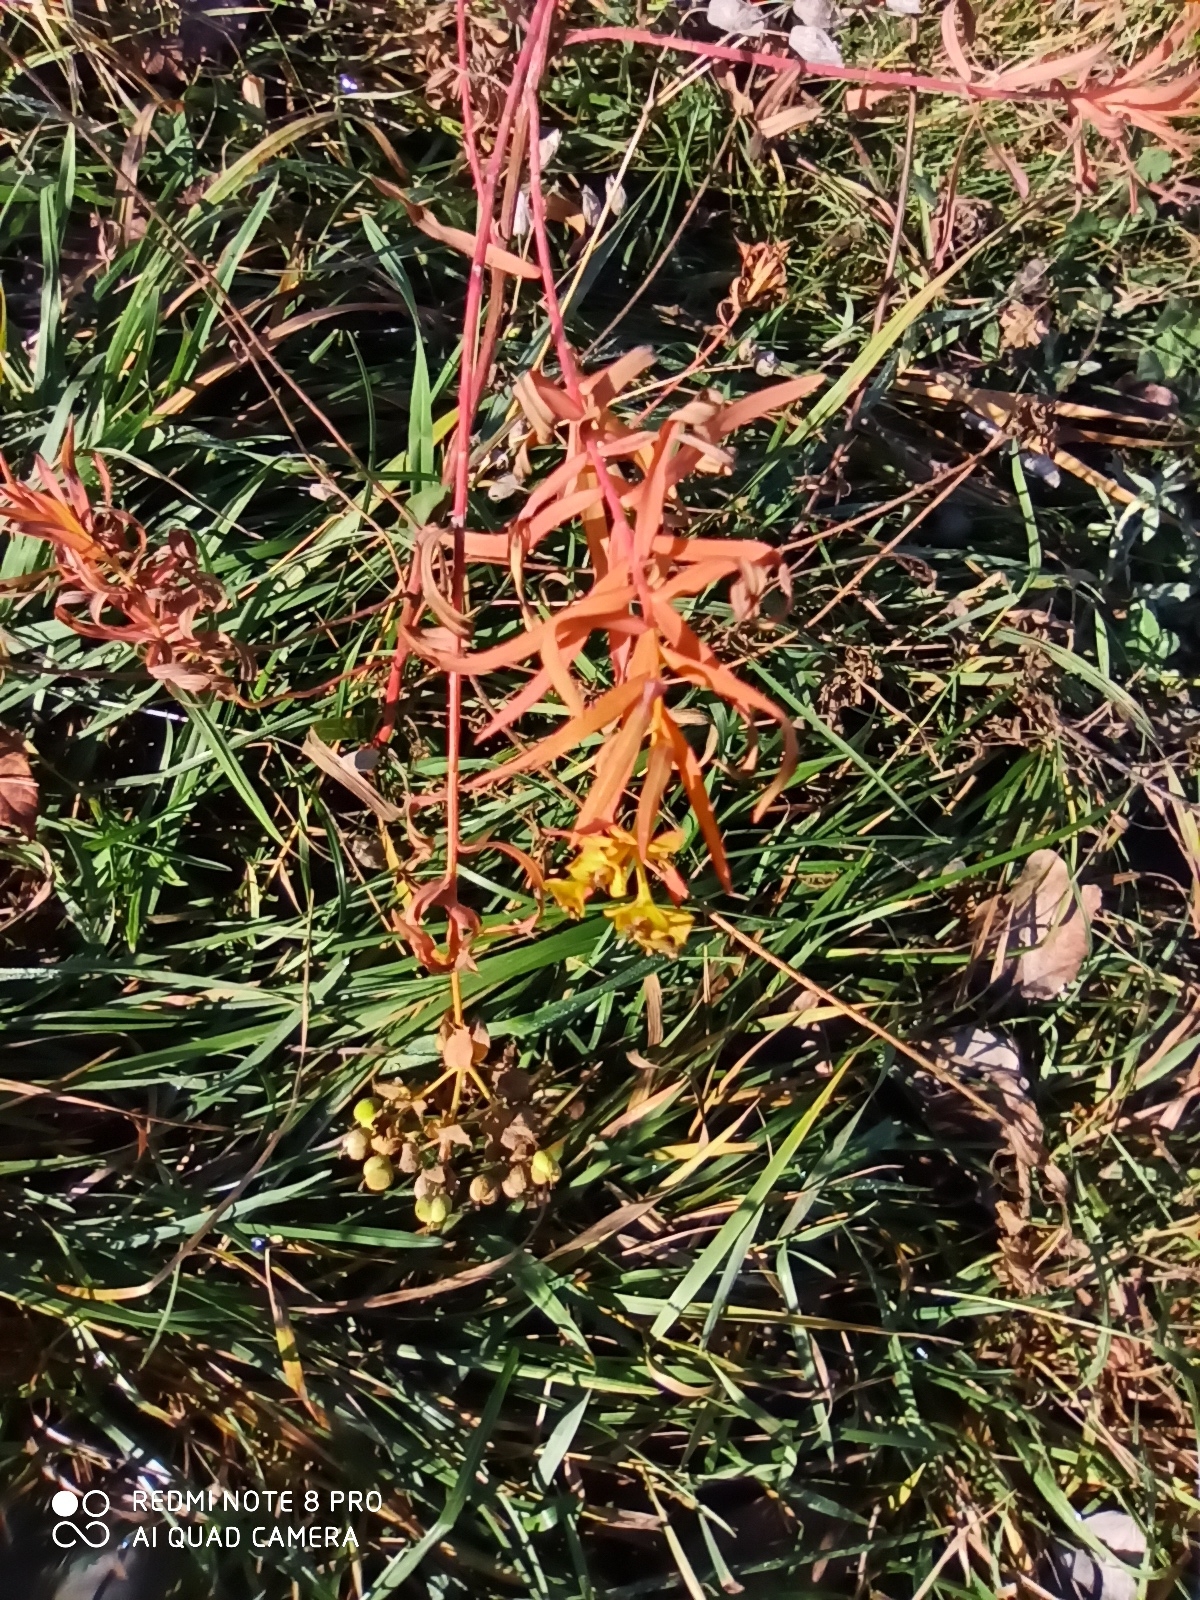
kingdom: Plantae
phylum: Tracheophyta
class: Magnoliopsida
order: Malpighiales
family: Euphorbiaceae
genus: Euphorbia
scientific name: Euphorbia virgata
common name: Leafy spurge
